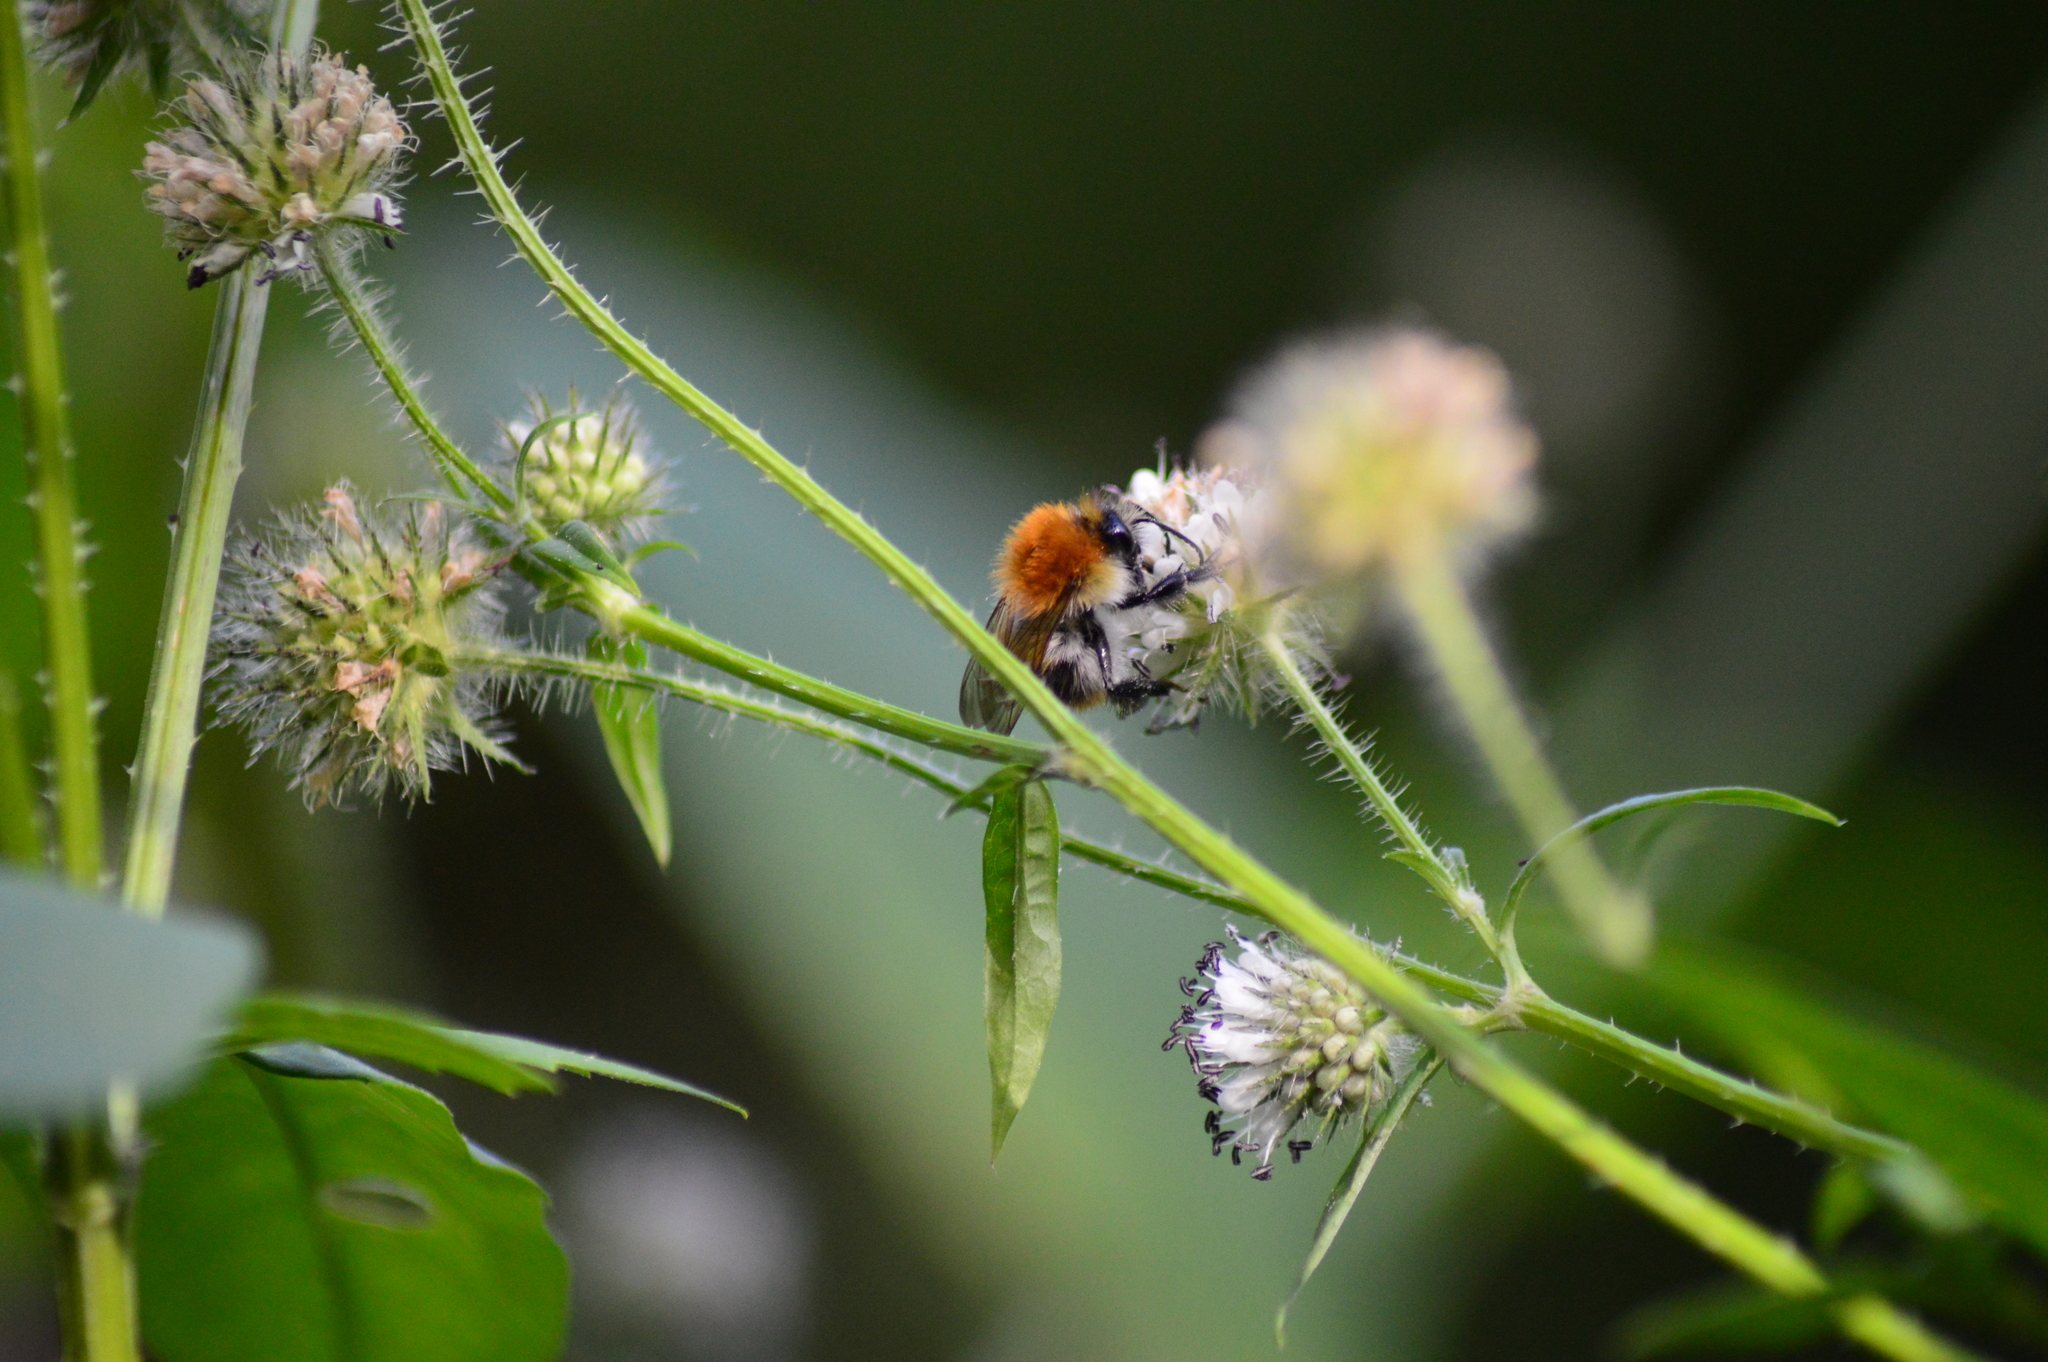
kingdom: Animalia
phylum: Arthropoda
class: Insecta
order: Hymenoptera
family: Apidae
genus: Bombus
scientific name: Bombus pascuorum
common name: Common carder bee
